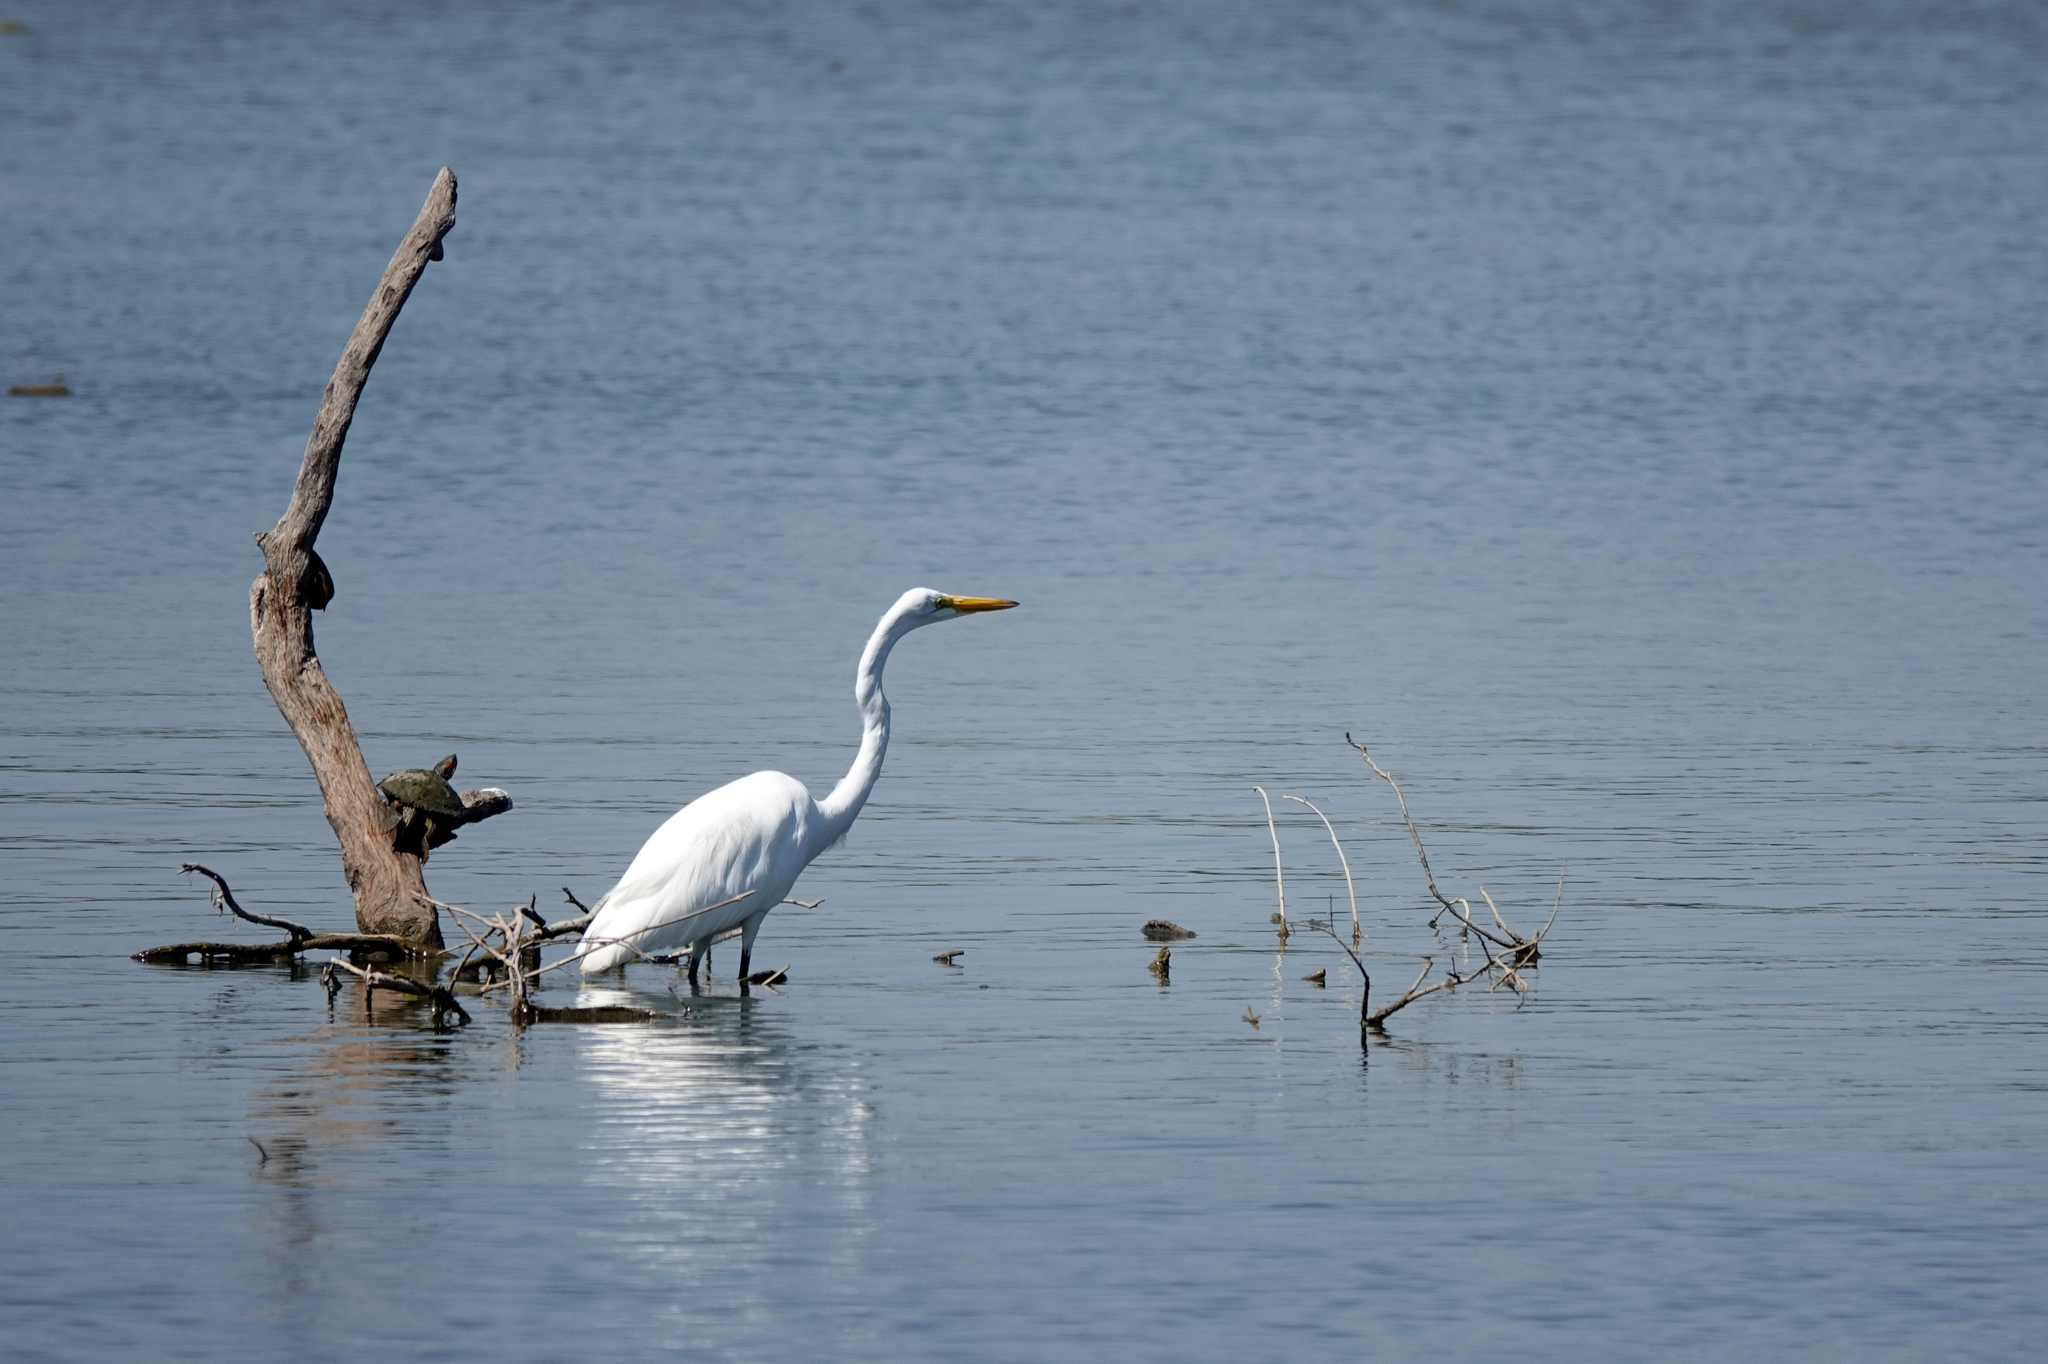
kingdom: Animalia
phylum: Chordata
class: Aves
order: Pelecaniformes
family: Ardeidae
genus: Ardea
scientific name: Ardea alba
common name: Great egret
